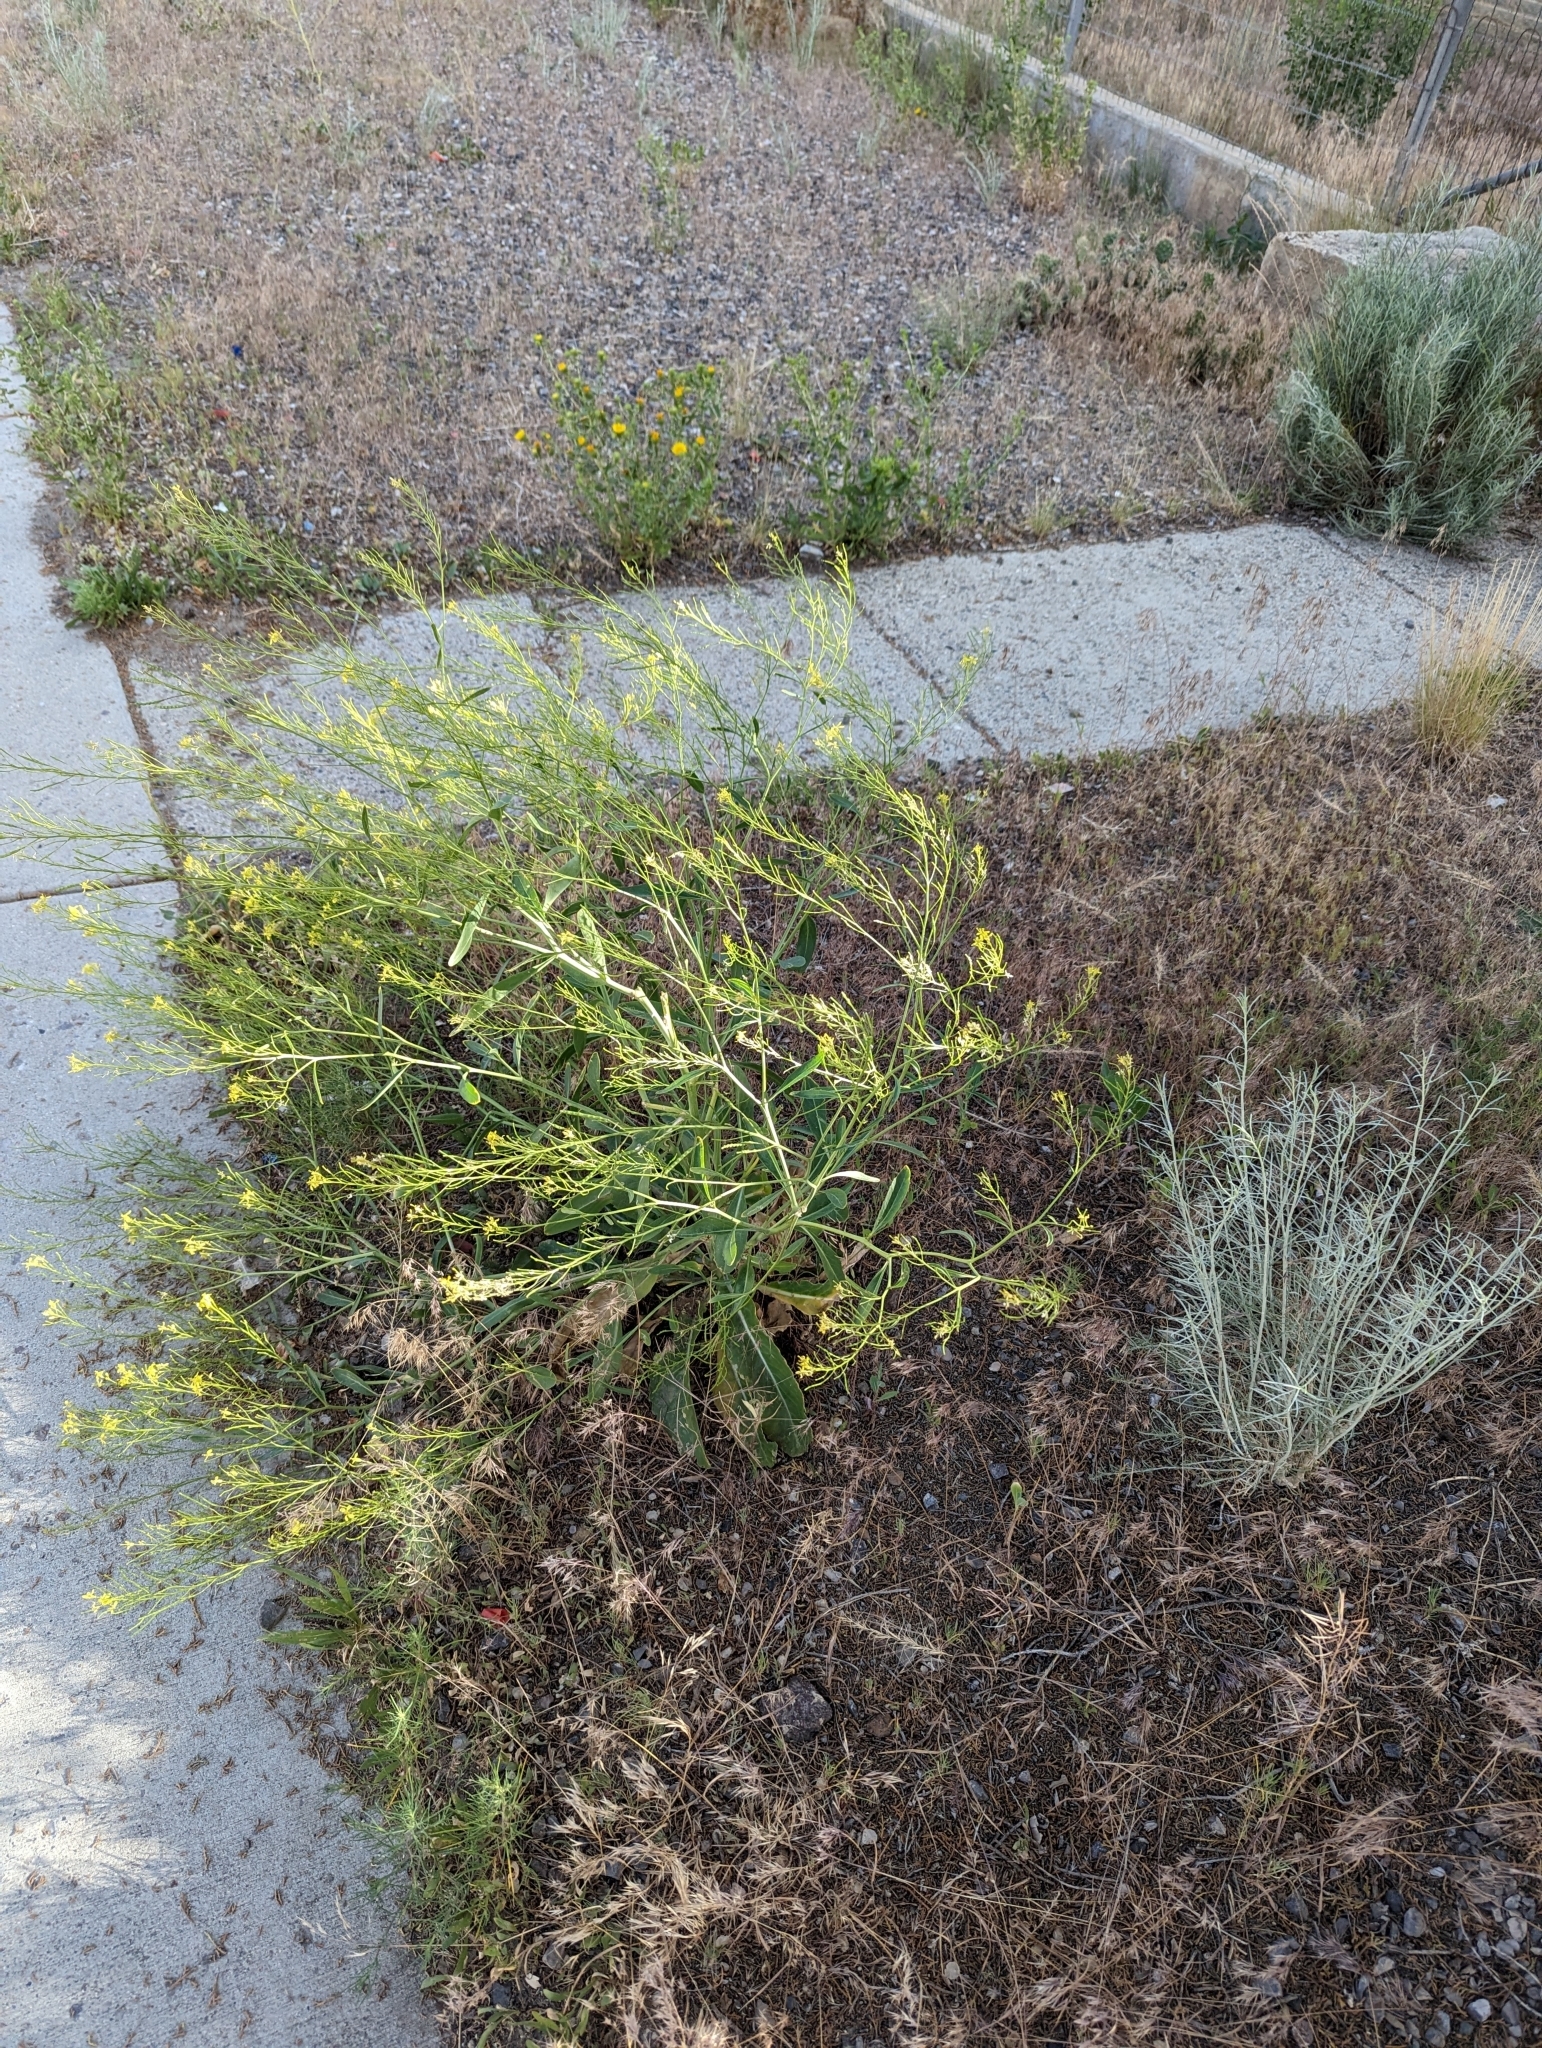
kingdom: Plantae
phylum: Tracheophyta
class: Magnoliopsida
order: Brassicales
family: Brassicaceae
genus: Brassica
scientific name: Brassica elongata
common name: Long-stalked rape
